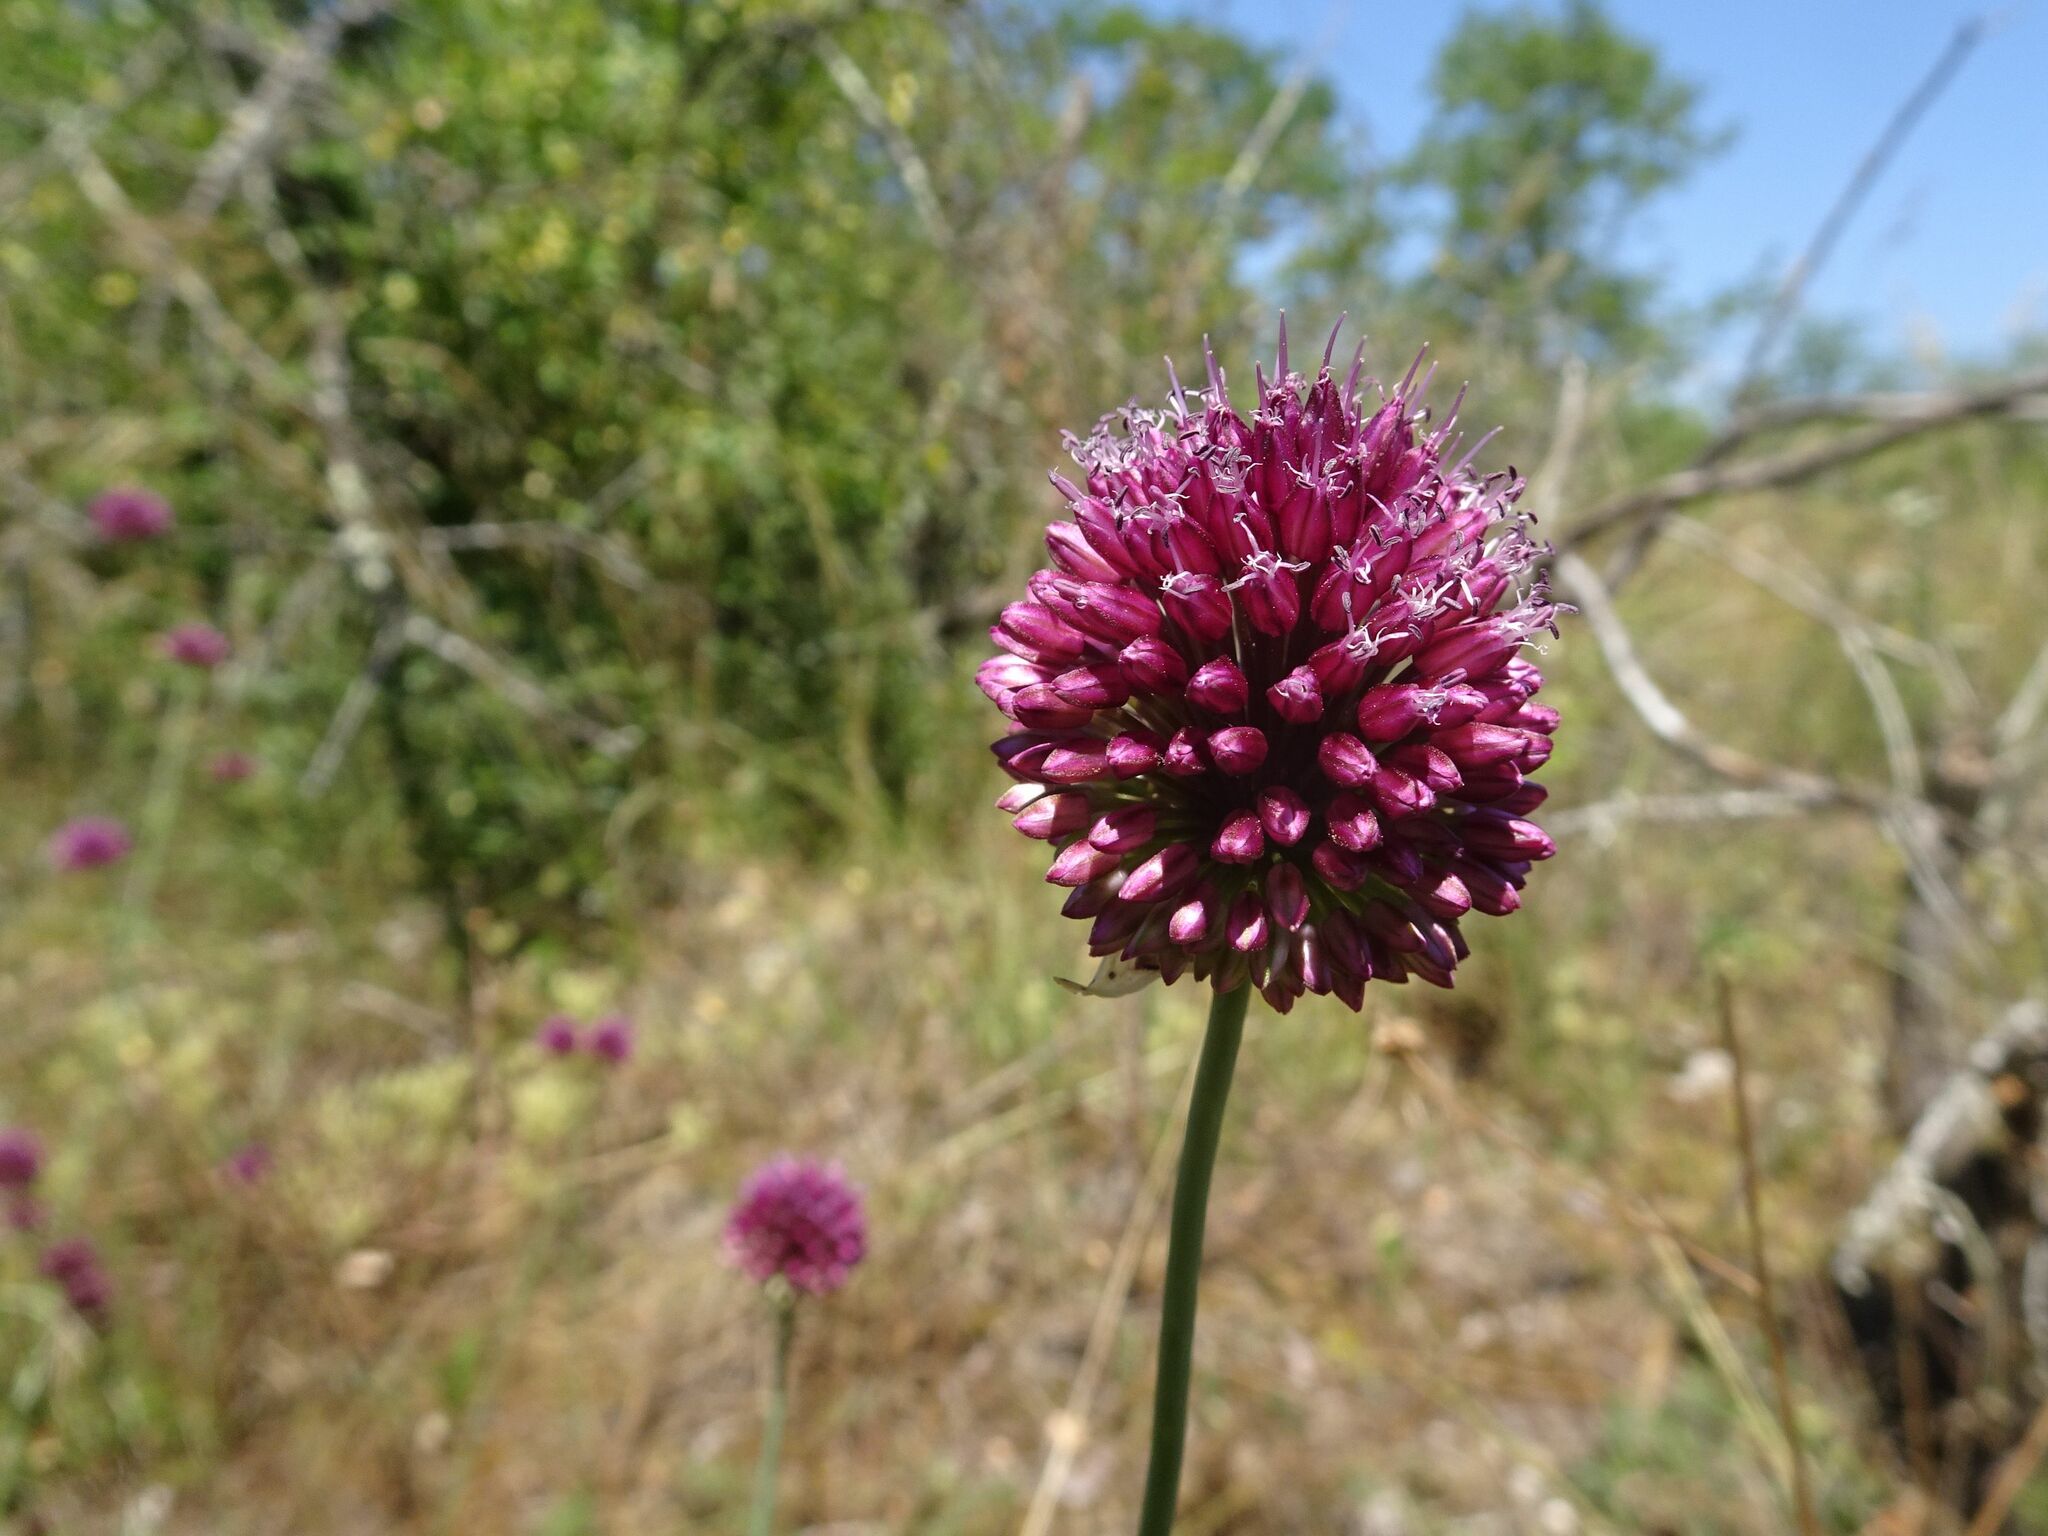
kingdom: Plantae
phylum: Tracheophyta
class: Liliopsida
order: Asparagales
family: Amaryllidaceae
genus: Allium
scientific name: Allium sphaerocephalon
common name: Round-headed leek
